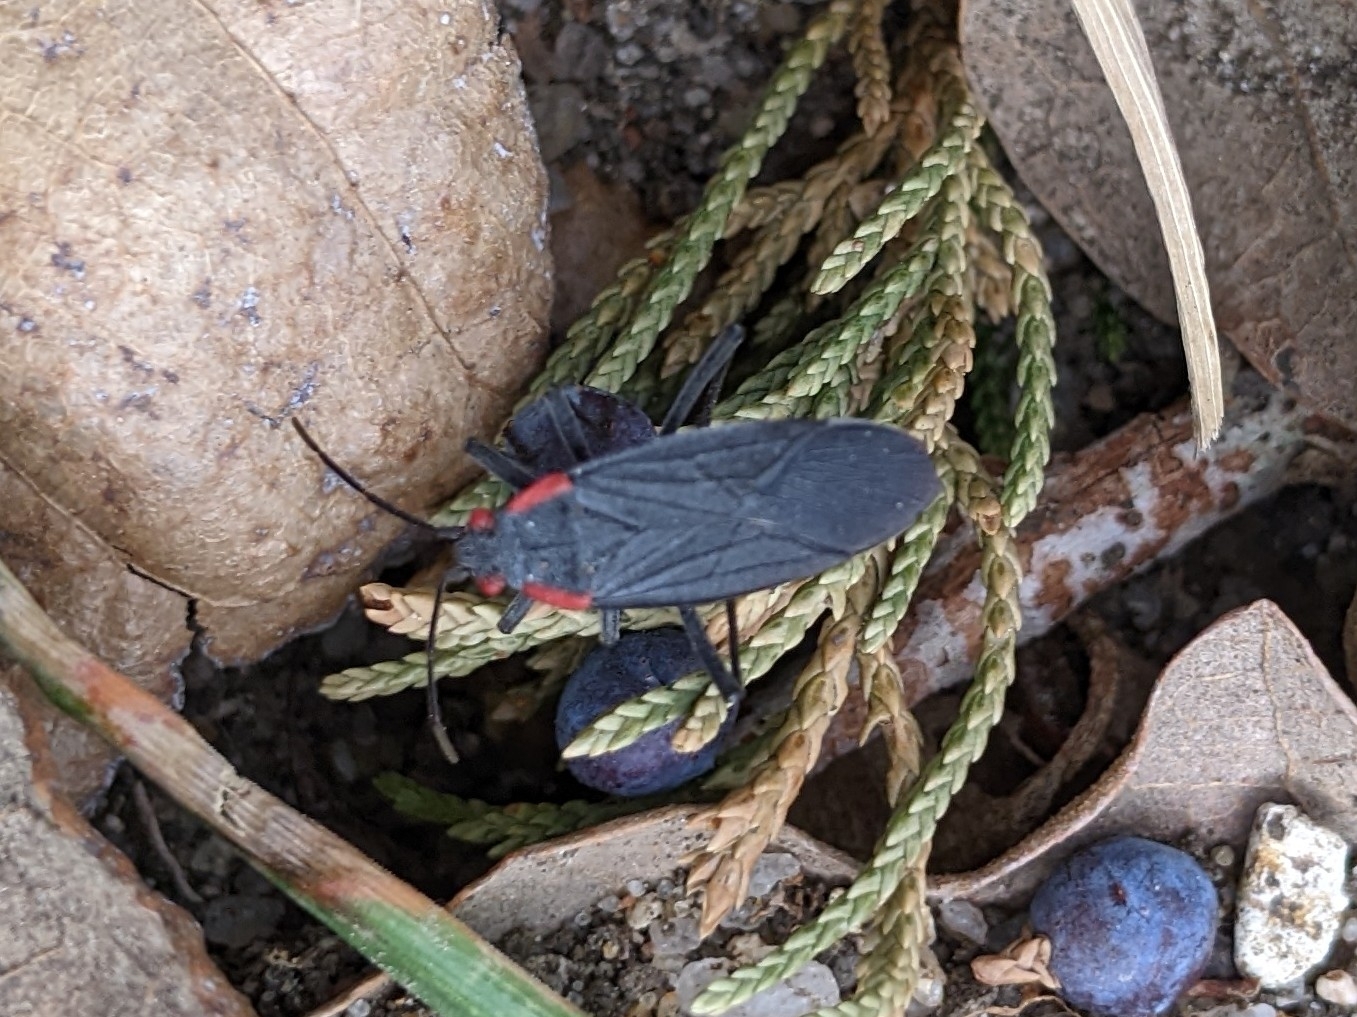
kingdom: Animalia
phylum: Arthropoda
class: Insecta
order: Hemiptera
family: Rhopalidae
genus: Jadera
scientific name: Jadera haematoloma
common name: Red-shouldered bug
